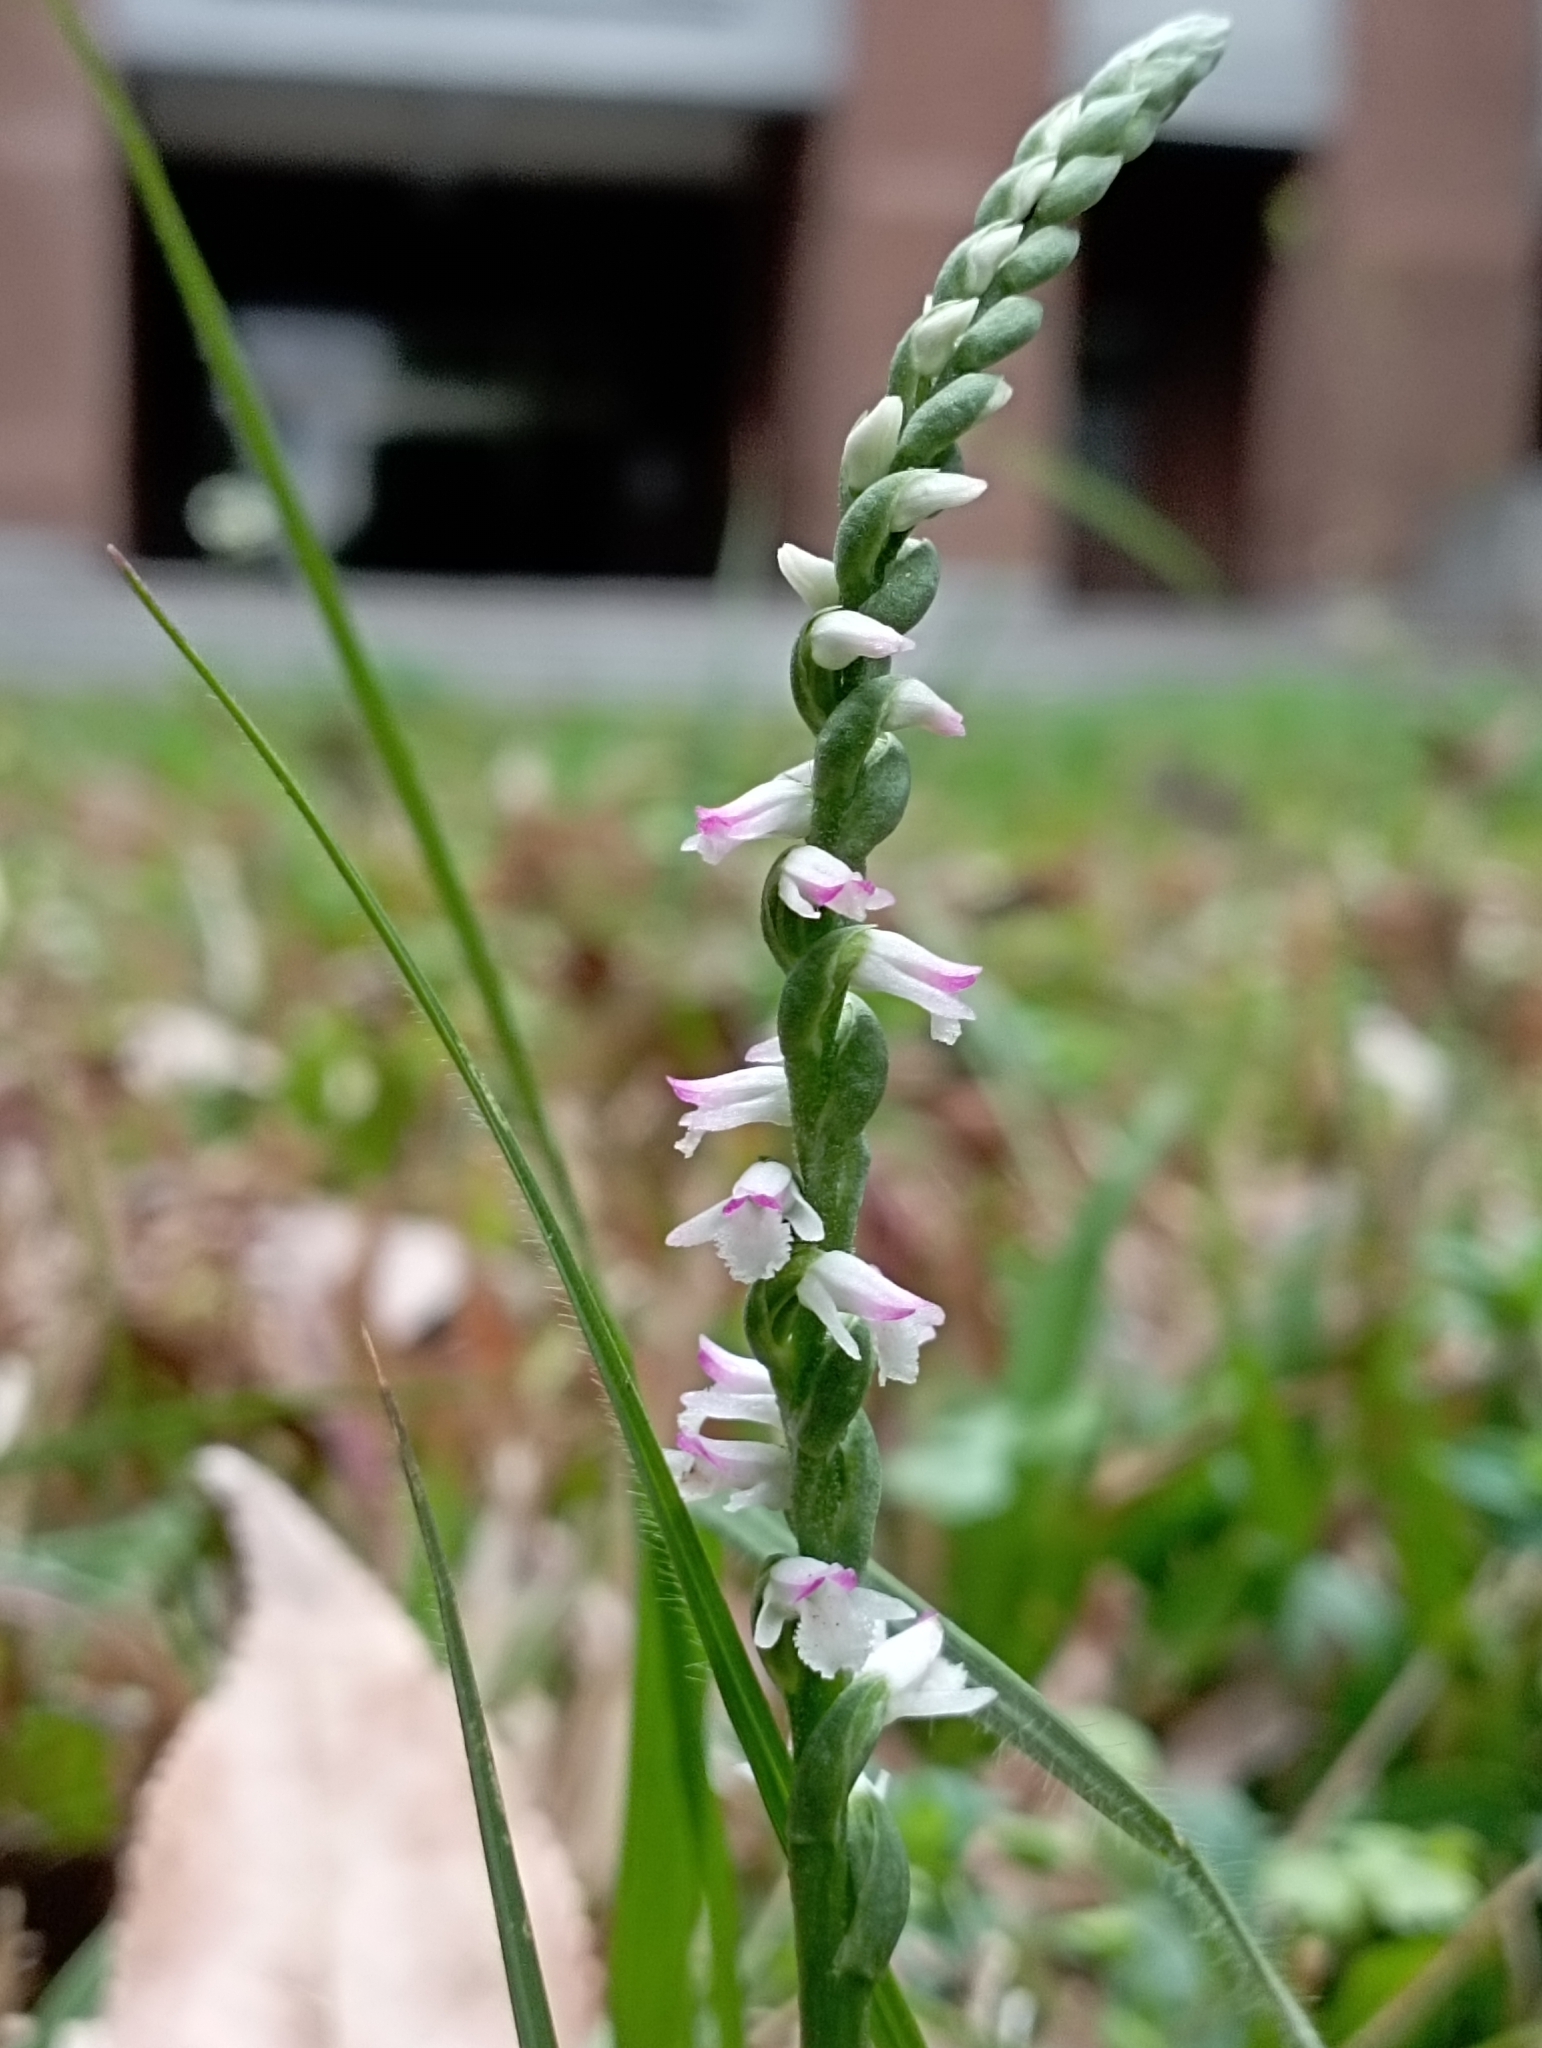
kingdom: Plantae
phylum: Tracheophyta
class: Liliopsida
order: Asparagales
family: Orchidaceae
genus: Spiranthes
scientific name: Spiranthes sinensis
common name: Chinese spiranthes
